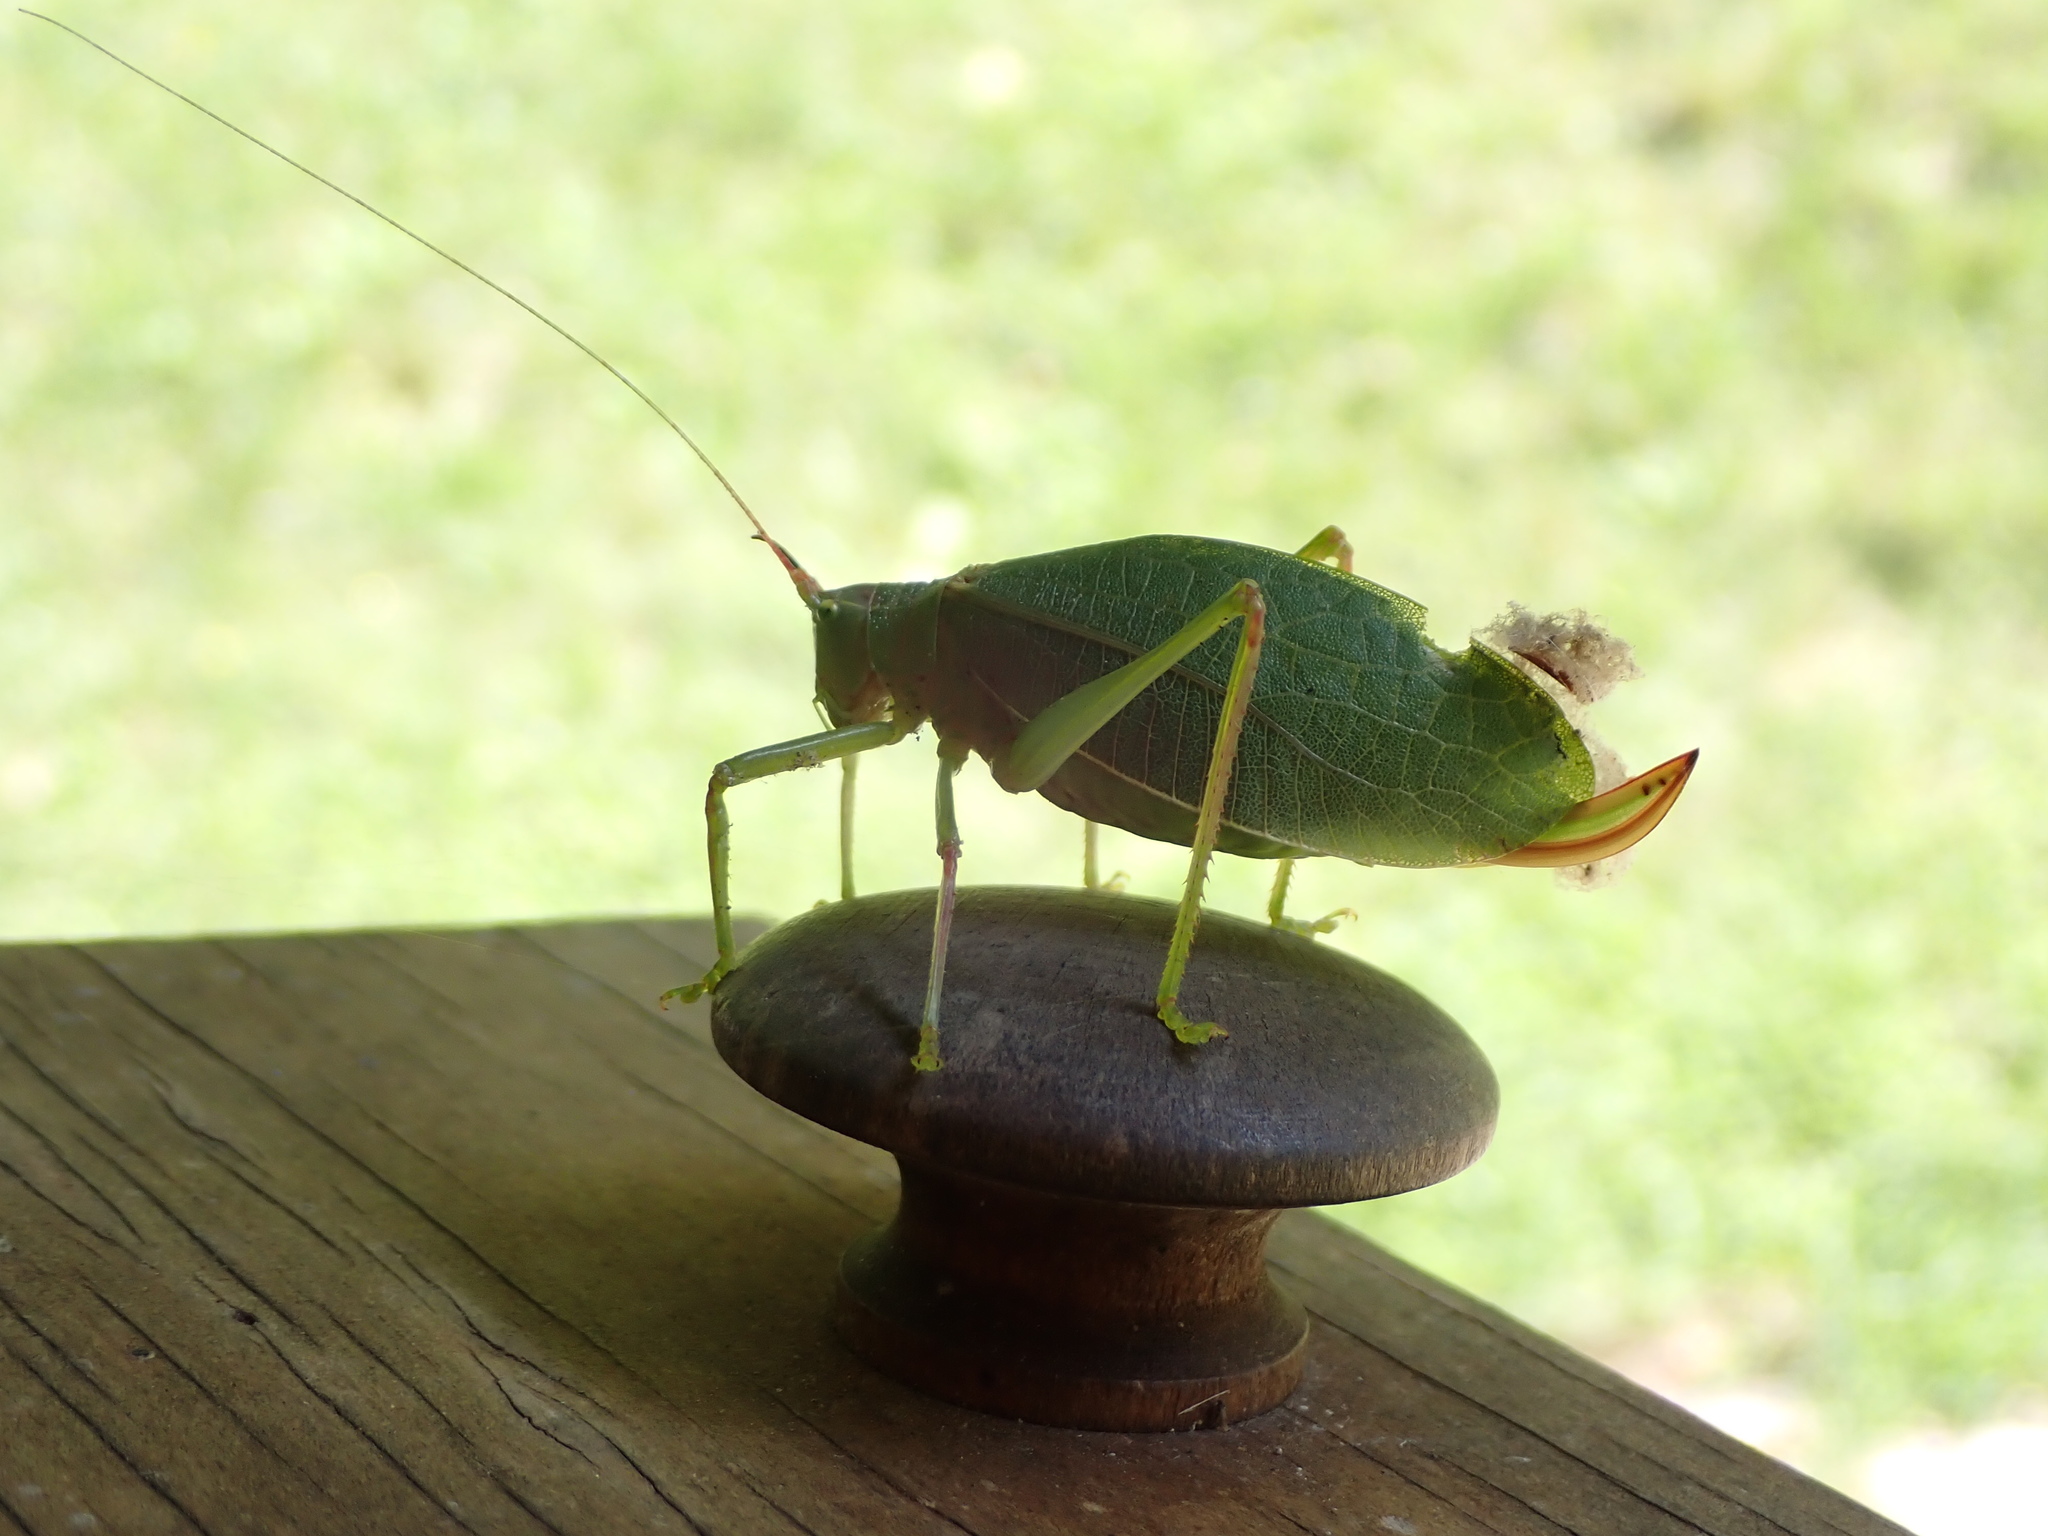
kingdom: Animalia
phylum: Arthropoda
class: Insecta
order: Orthoptera
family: Tettigoniidae
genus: Pterophylla
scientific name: Pterophylla camellifolia
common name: Common true katydid
